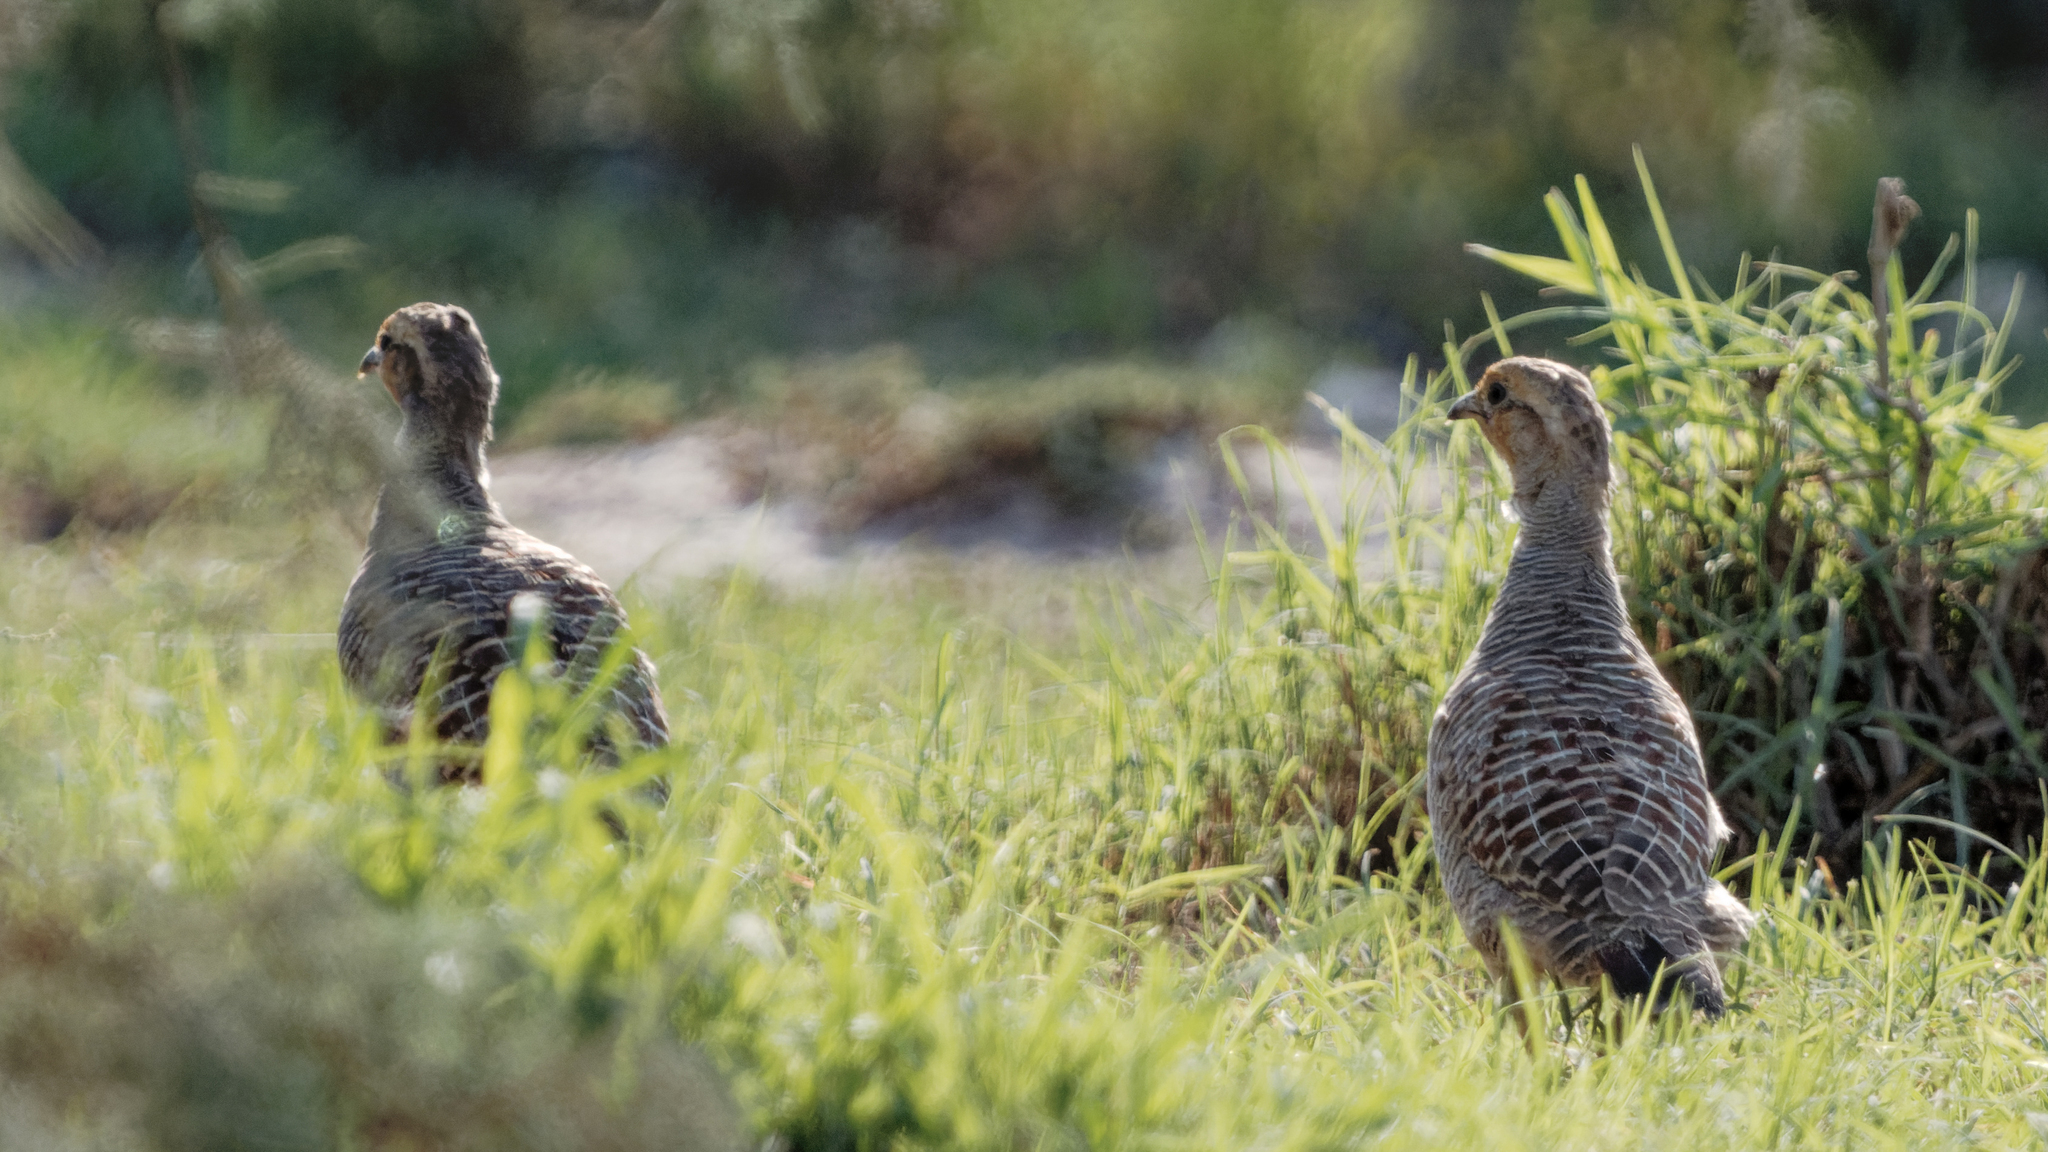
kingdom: Animalia
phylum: Chordata
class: Aves
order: Galliformes
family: Phasianidae
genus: Ortygornis
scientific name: Ortygornis pondicerianus
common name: Grey francolin
